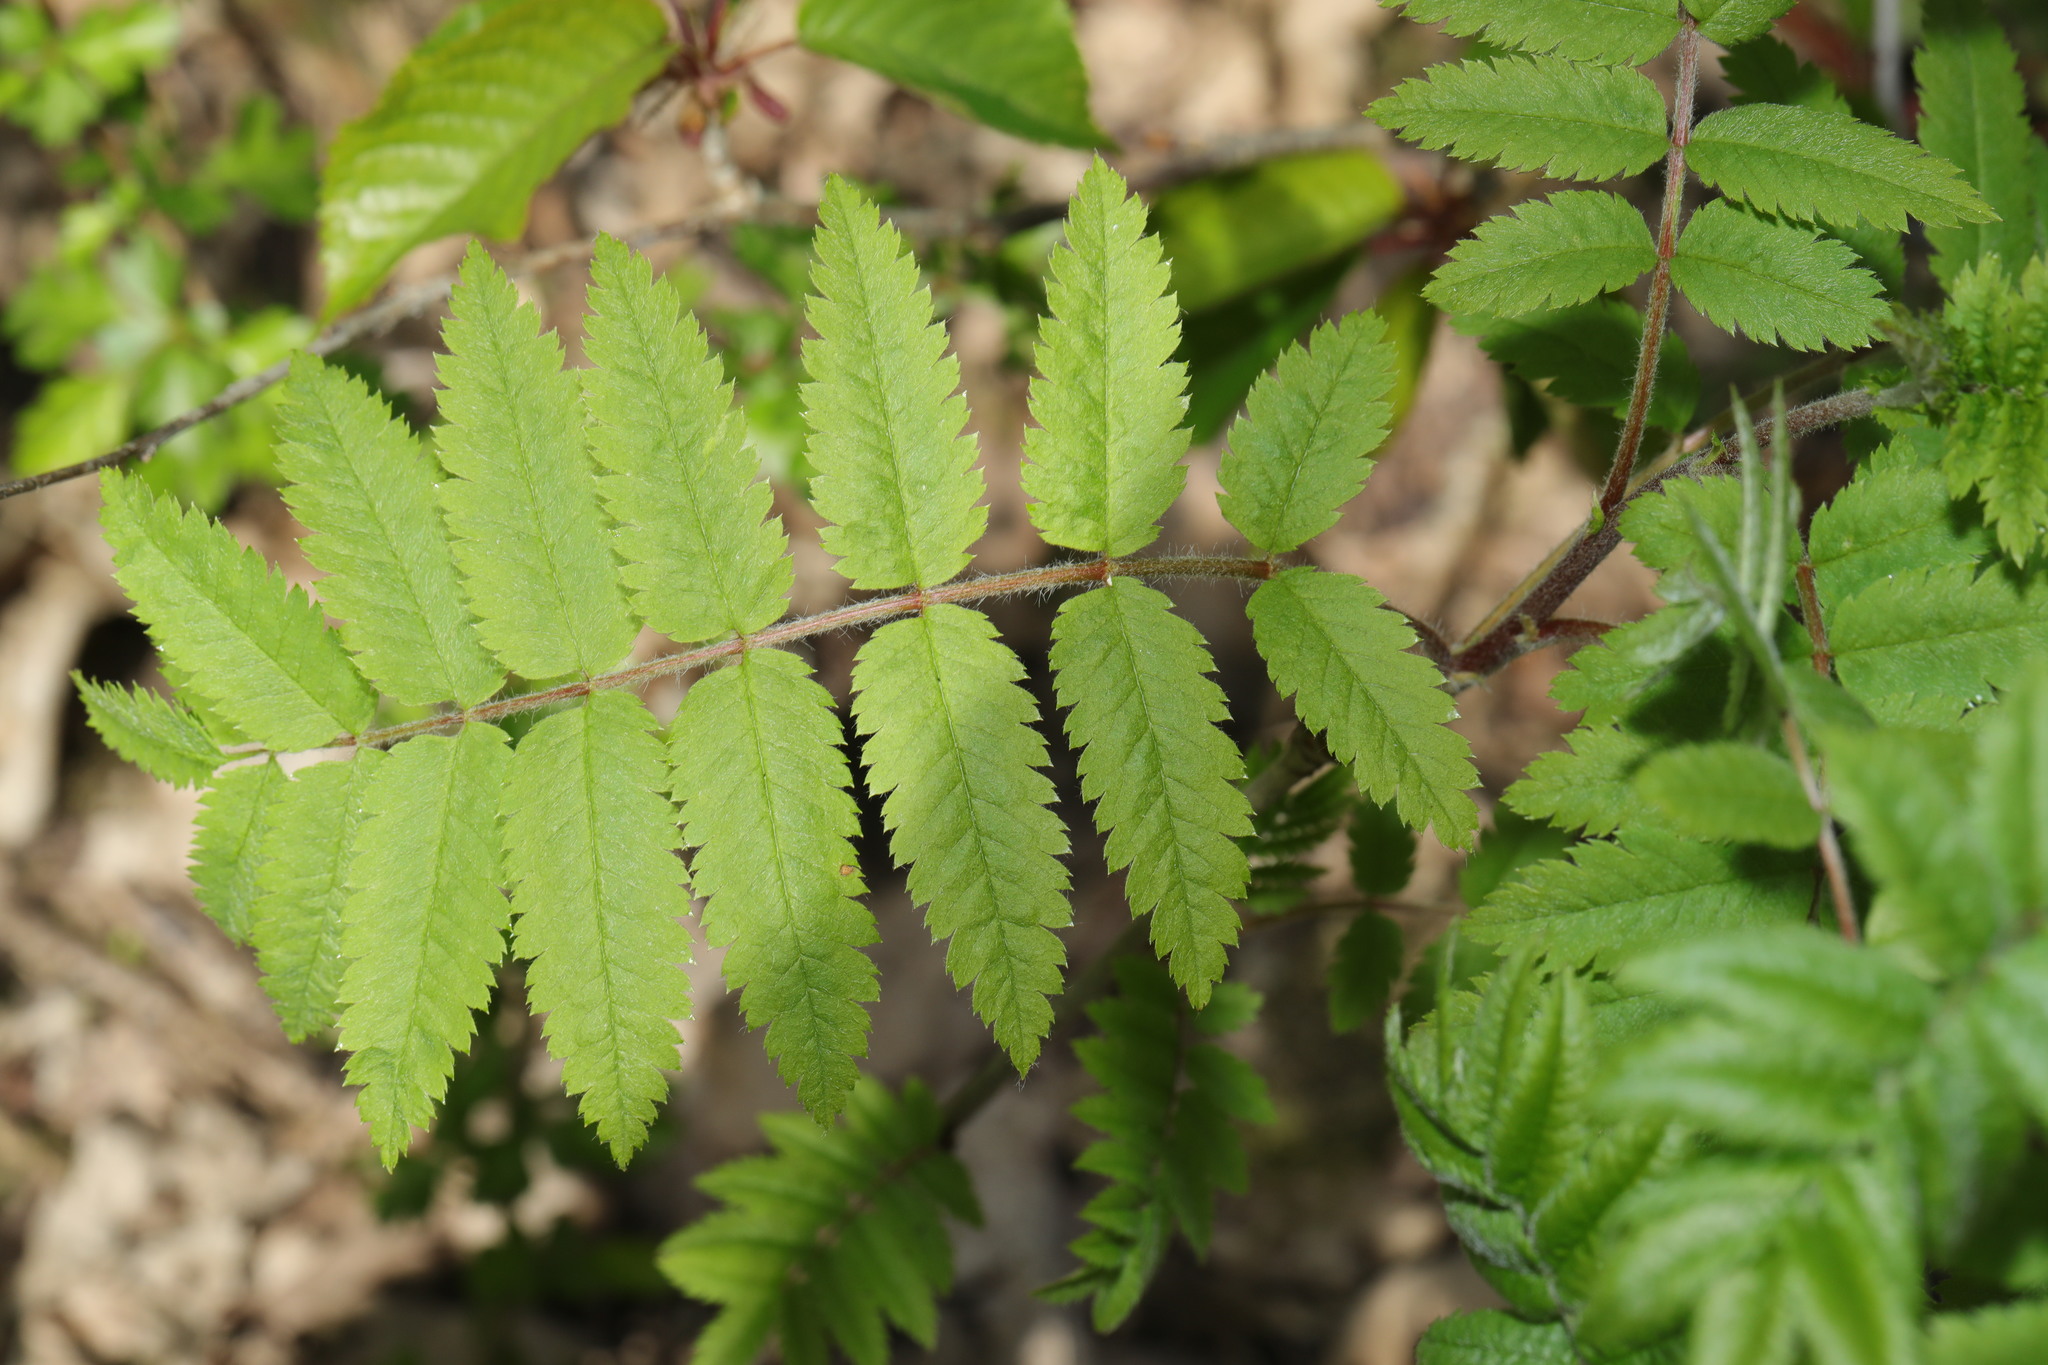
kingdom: Plantae
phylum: Tracheophyta
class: Magnoliopsida
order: Rosales
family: Rosaceae
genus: Sorbus
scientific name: Sorbus aucuparia
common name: Rowan
